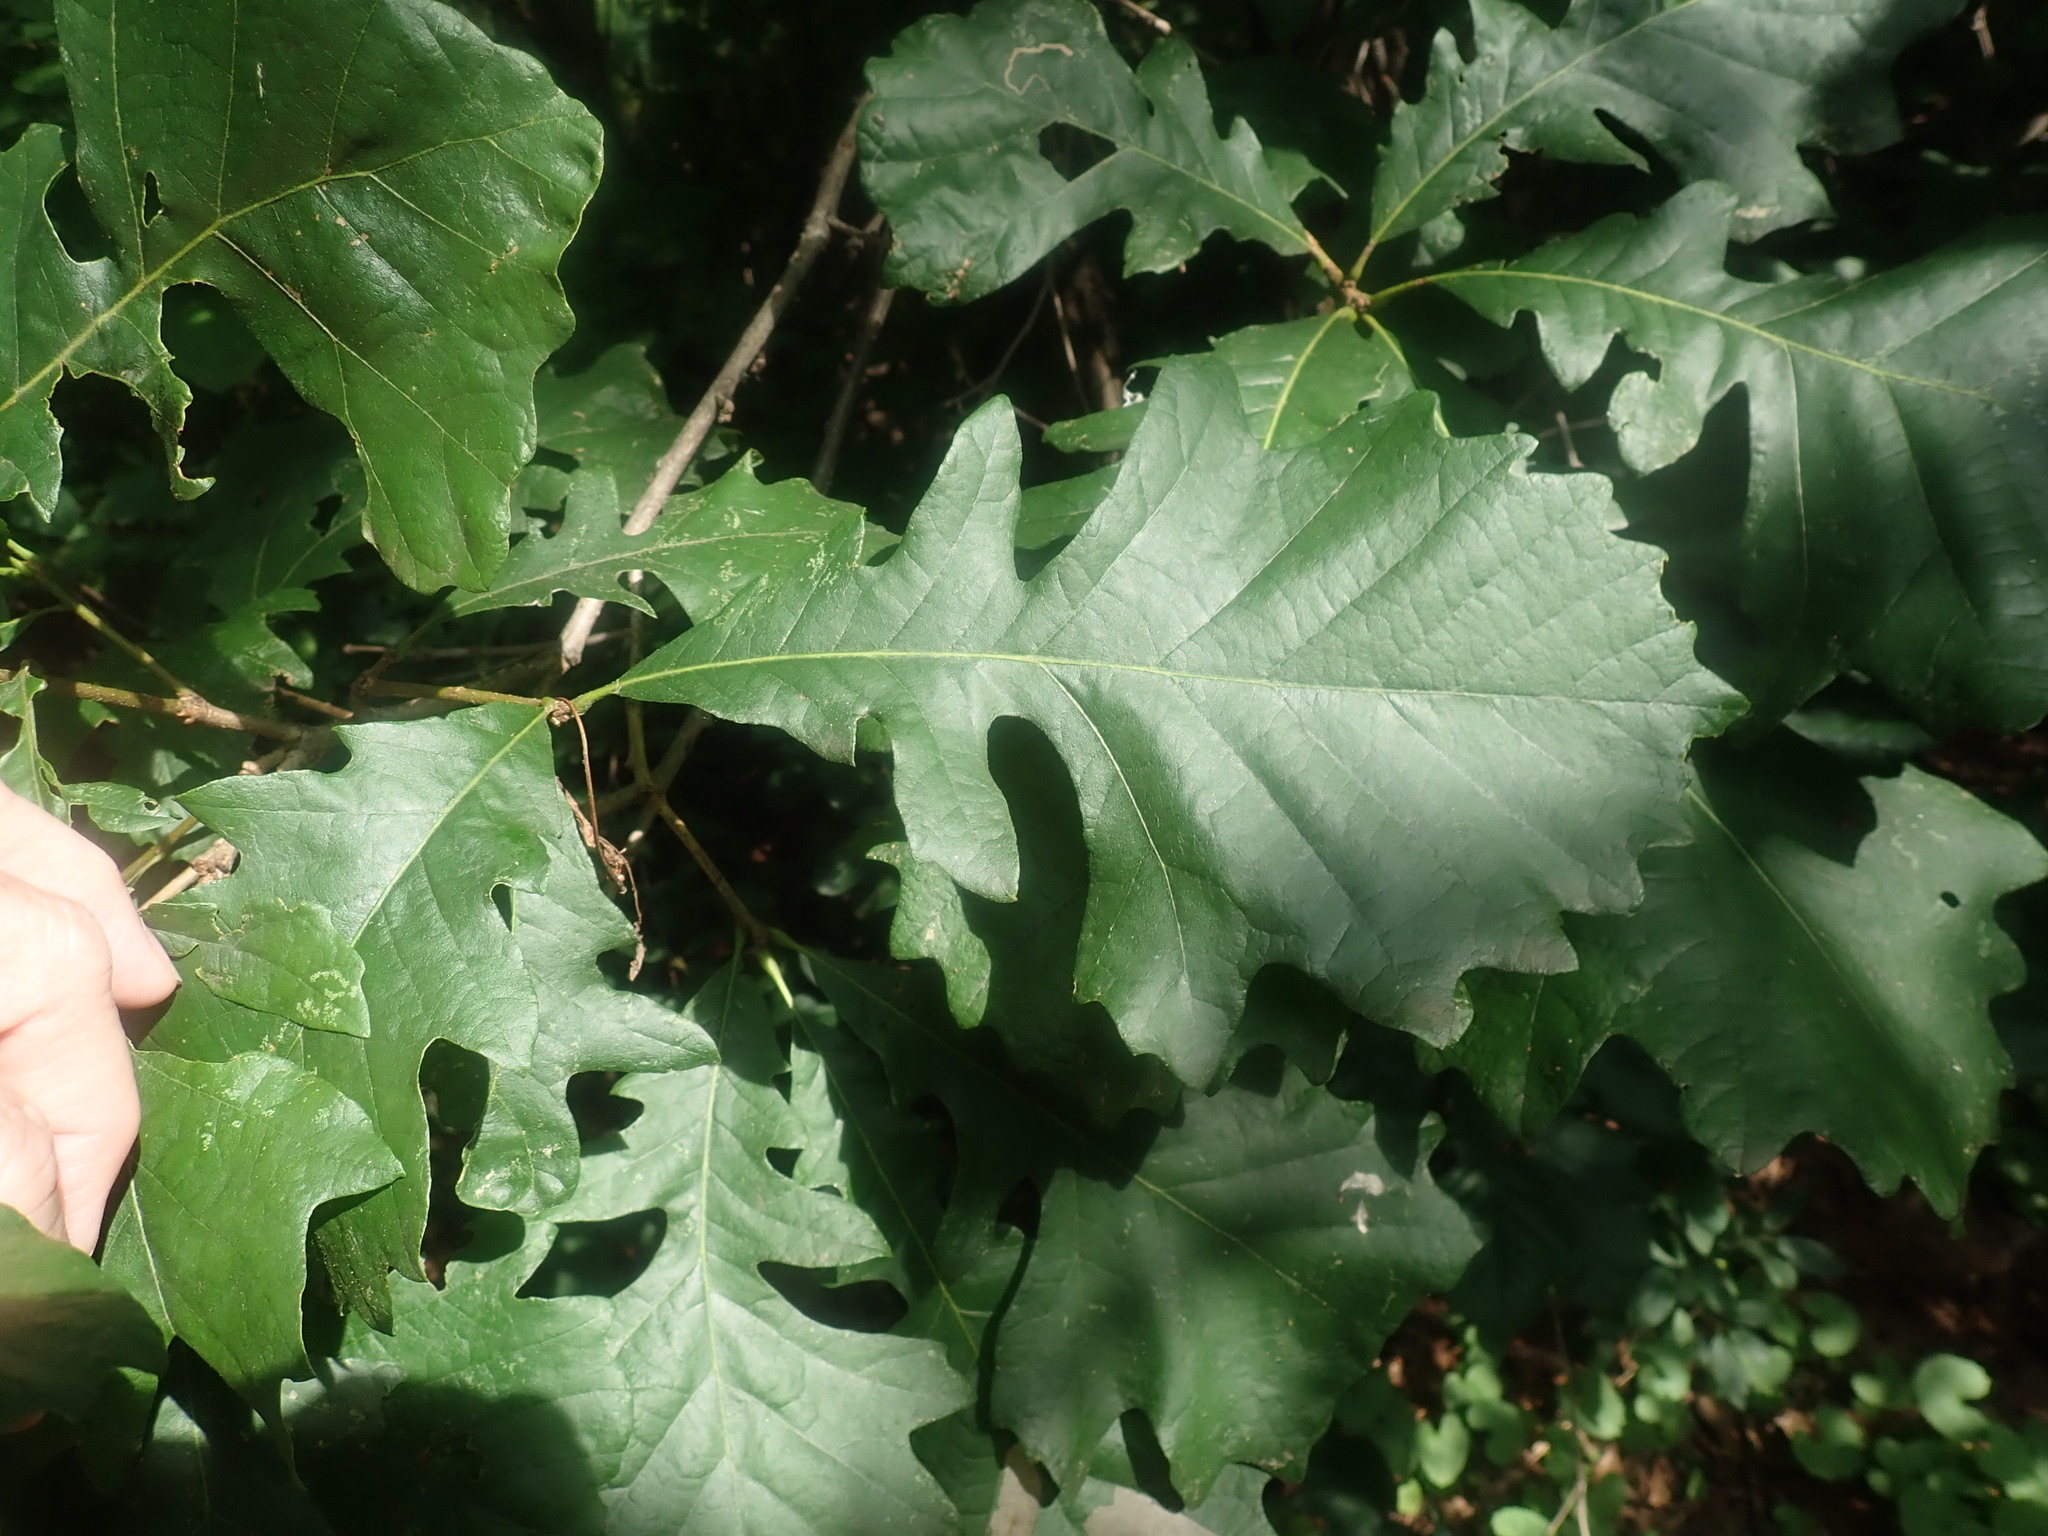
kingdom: Plantae
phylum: Tracheophyta
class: Magnoliopsida
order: Fagales
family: Fagaceae
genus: Quercus
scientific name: Quercus macrocarpa
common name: Bur oak
